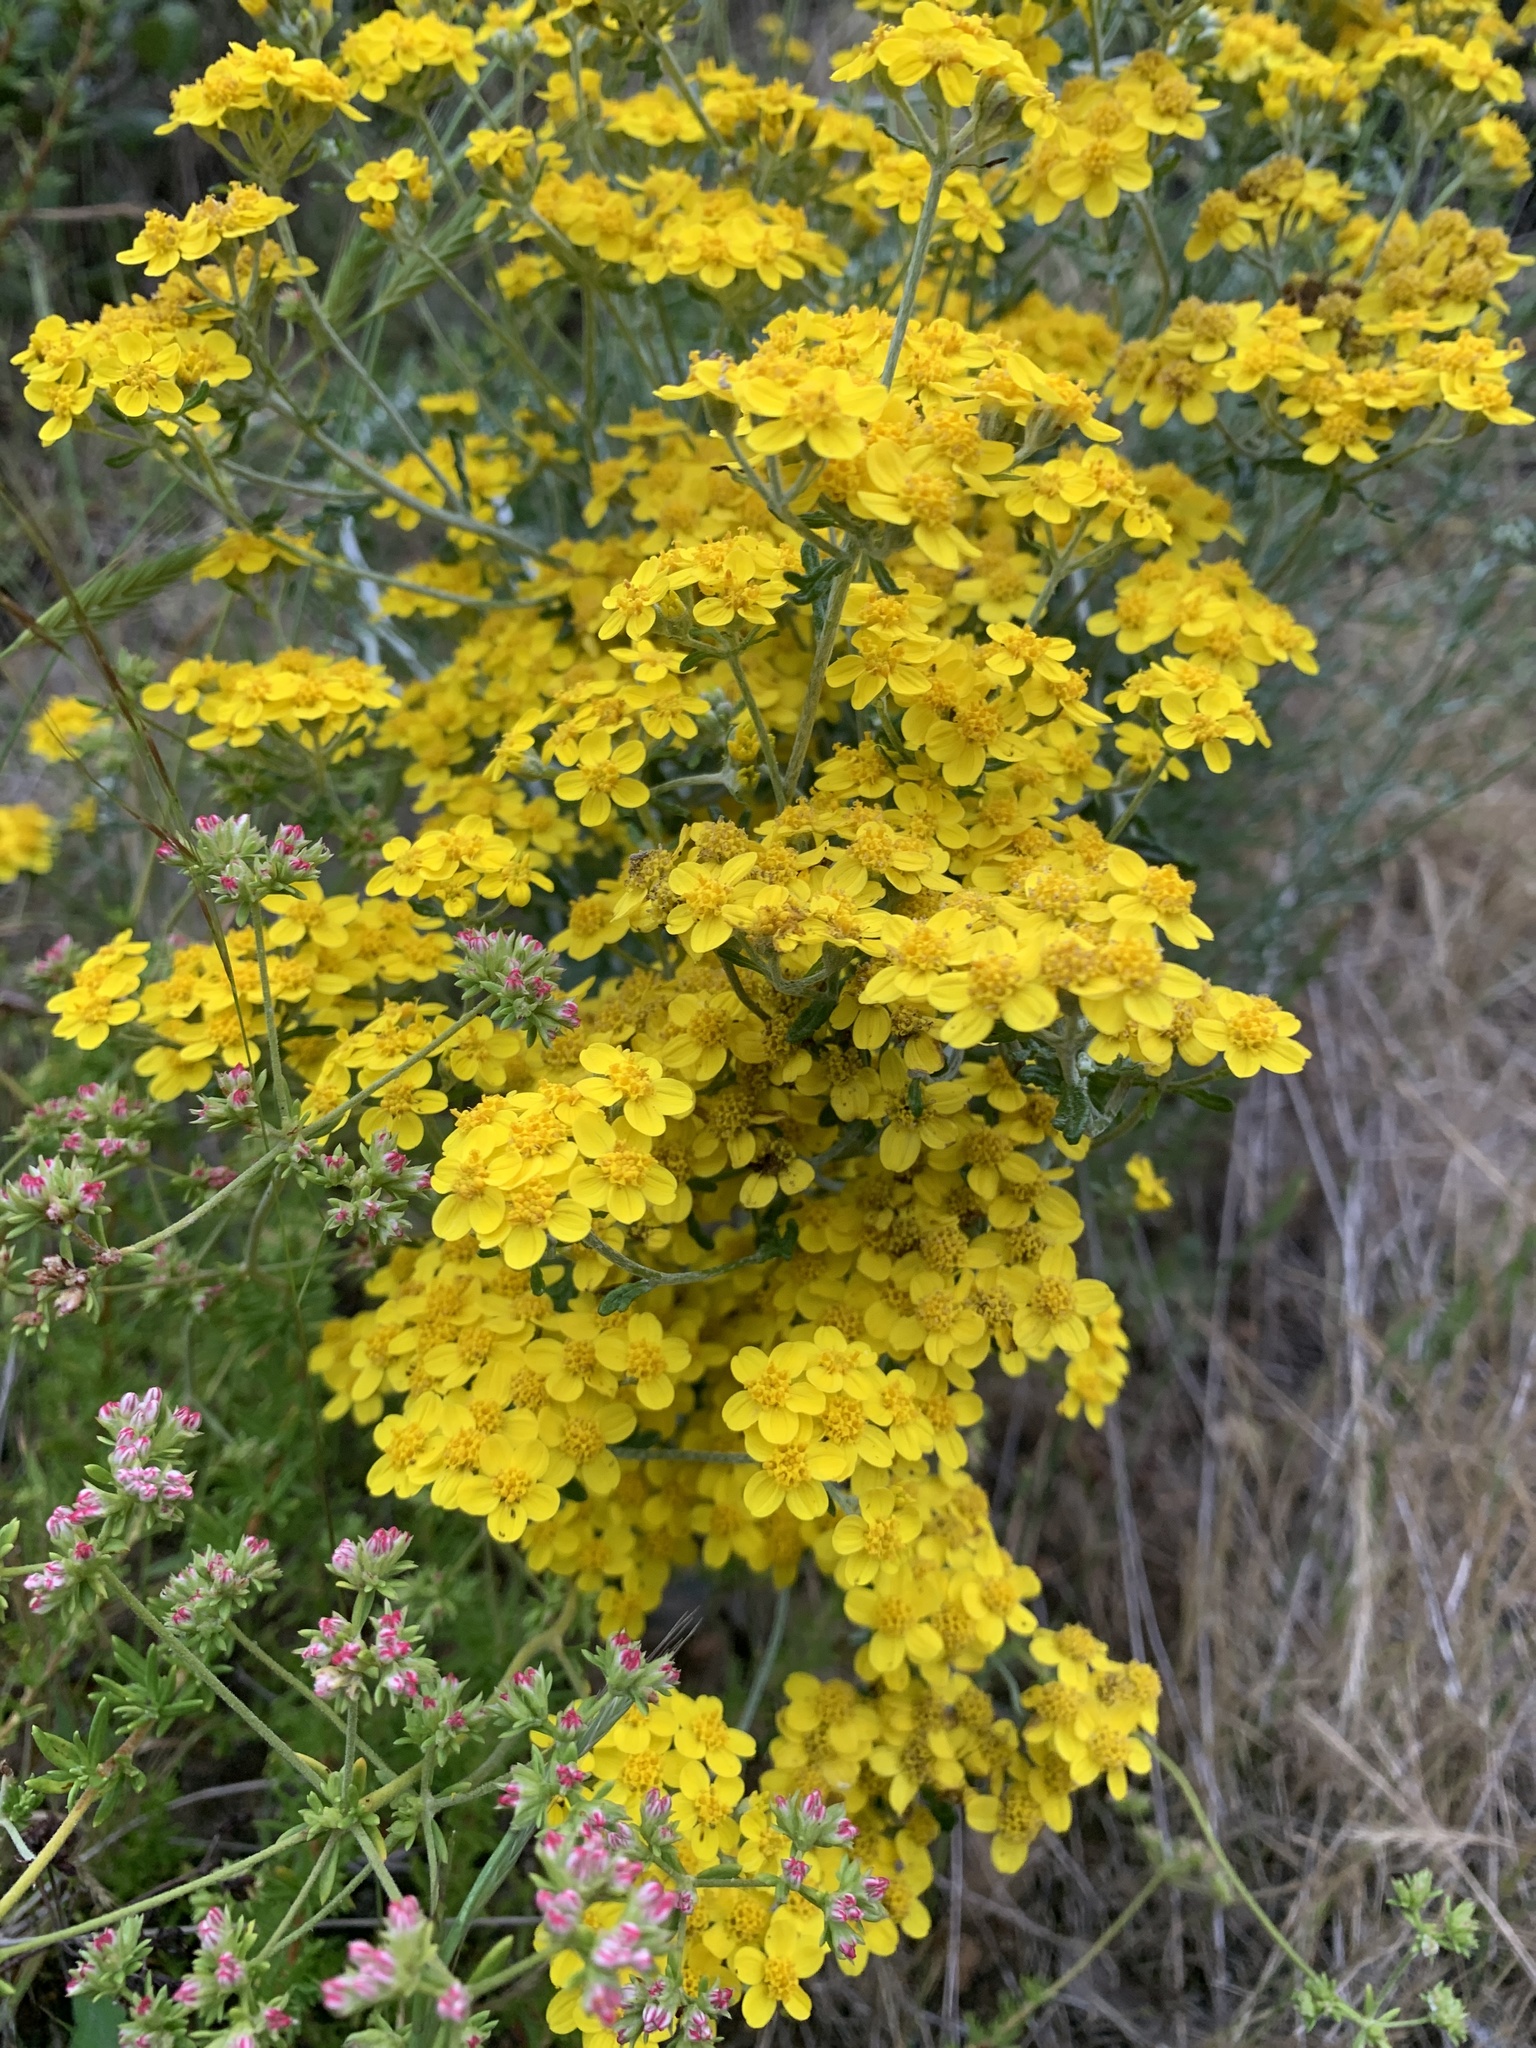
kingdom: Plantae
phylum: Tracheophyta
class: Magnoliopsida
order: Asterales
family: Asteraceae
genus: Eriophyllum
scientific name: Eriophyllum confertiflorum
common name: Golden-yarrow
